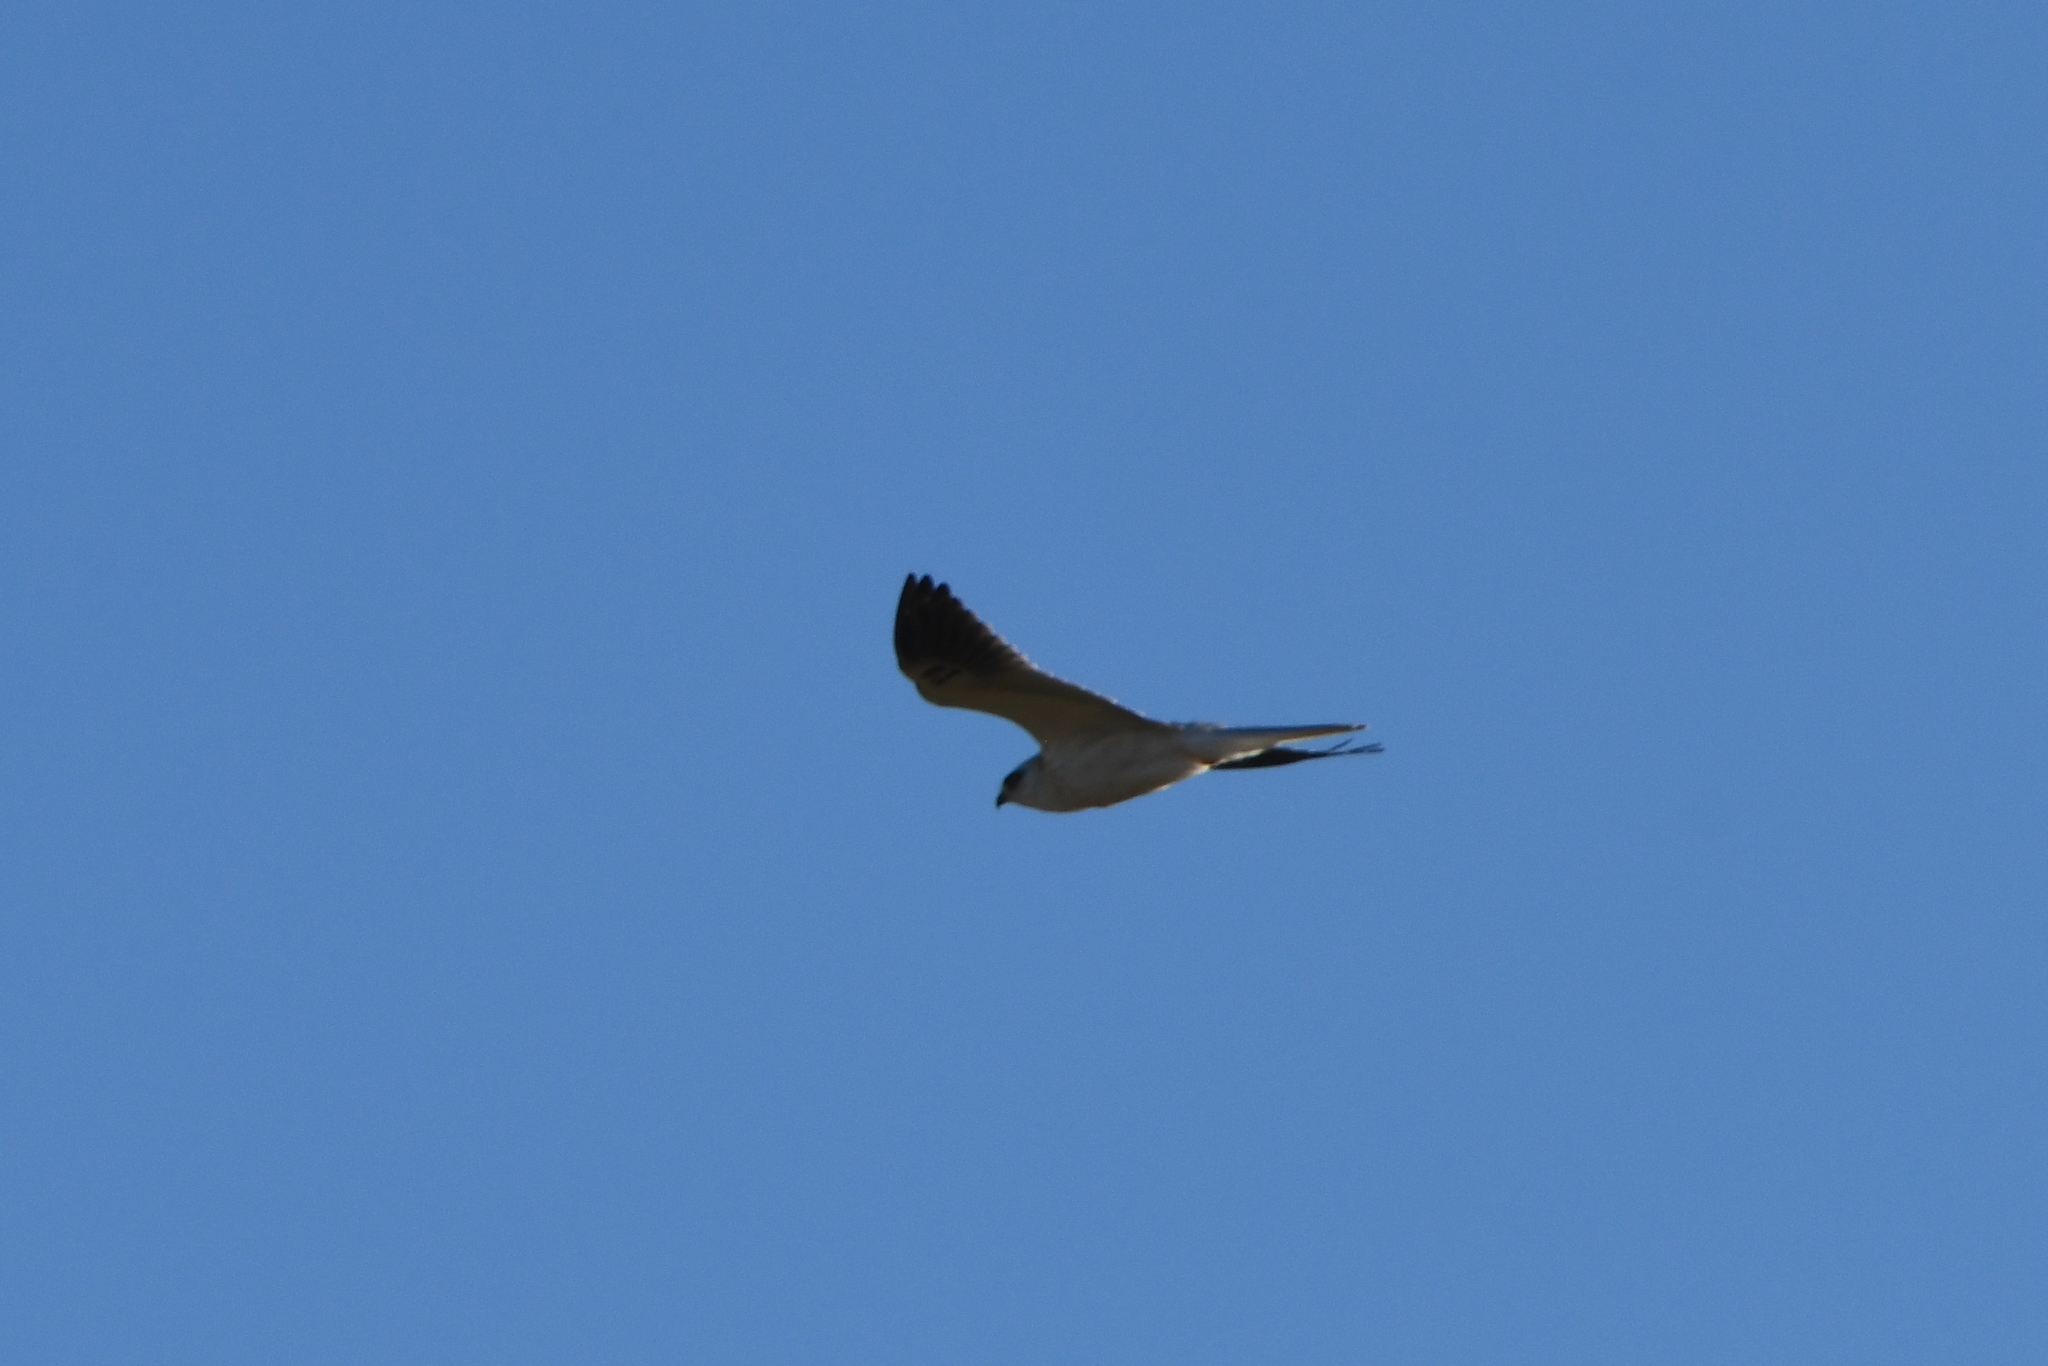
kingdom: Animalia
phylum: Chordata
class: Aves
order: Accipitriformes
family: Accipitridae
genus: Elanus
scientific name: Elanus leucurus
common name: White-tailed kite
